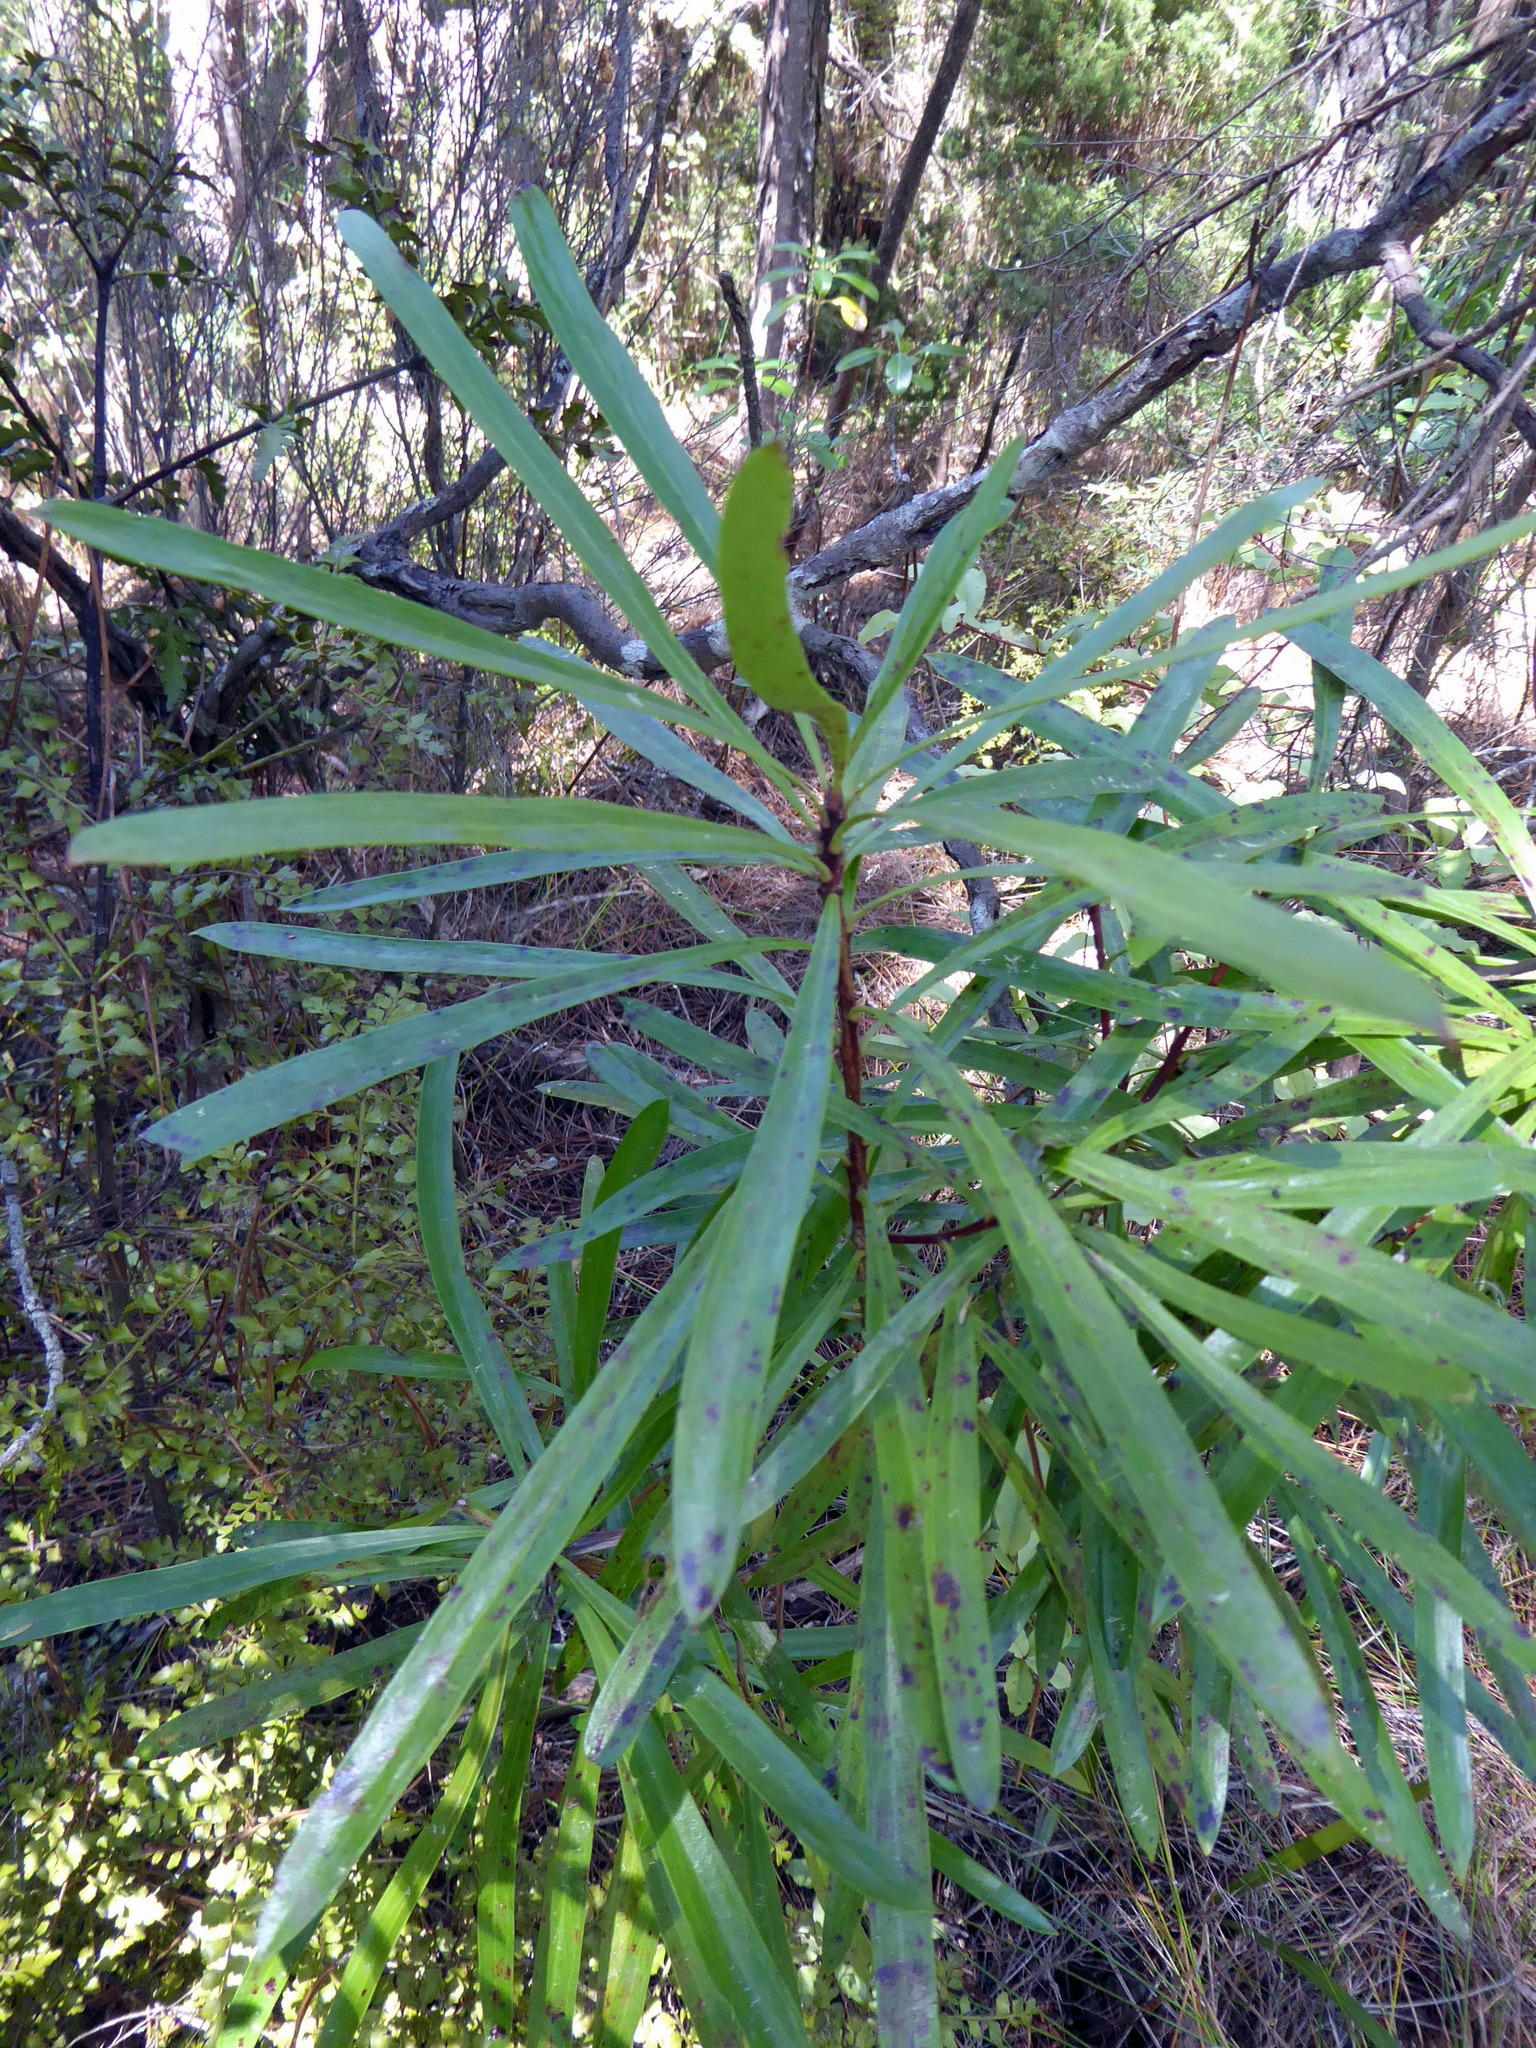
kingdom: Plantae
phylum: Tracheophyta
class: Magnoliopsida
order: Proteales
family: Proteaceae
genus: Toronia
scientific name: Toronia toru
